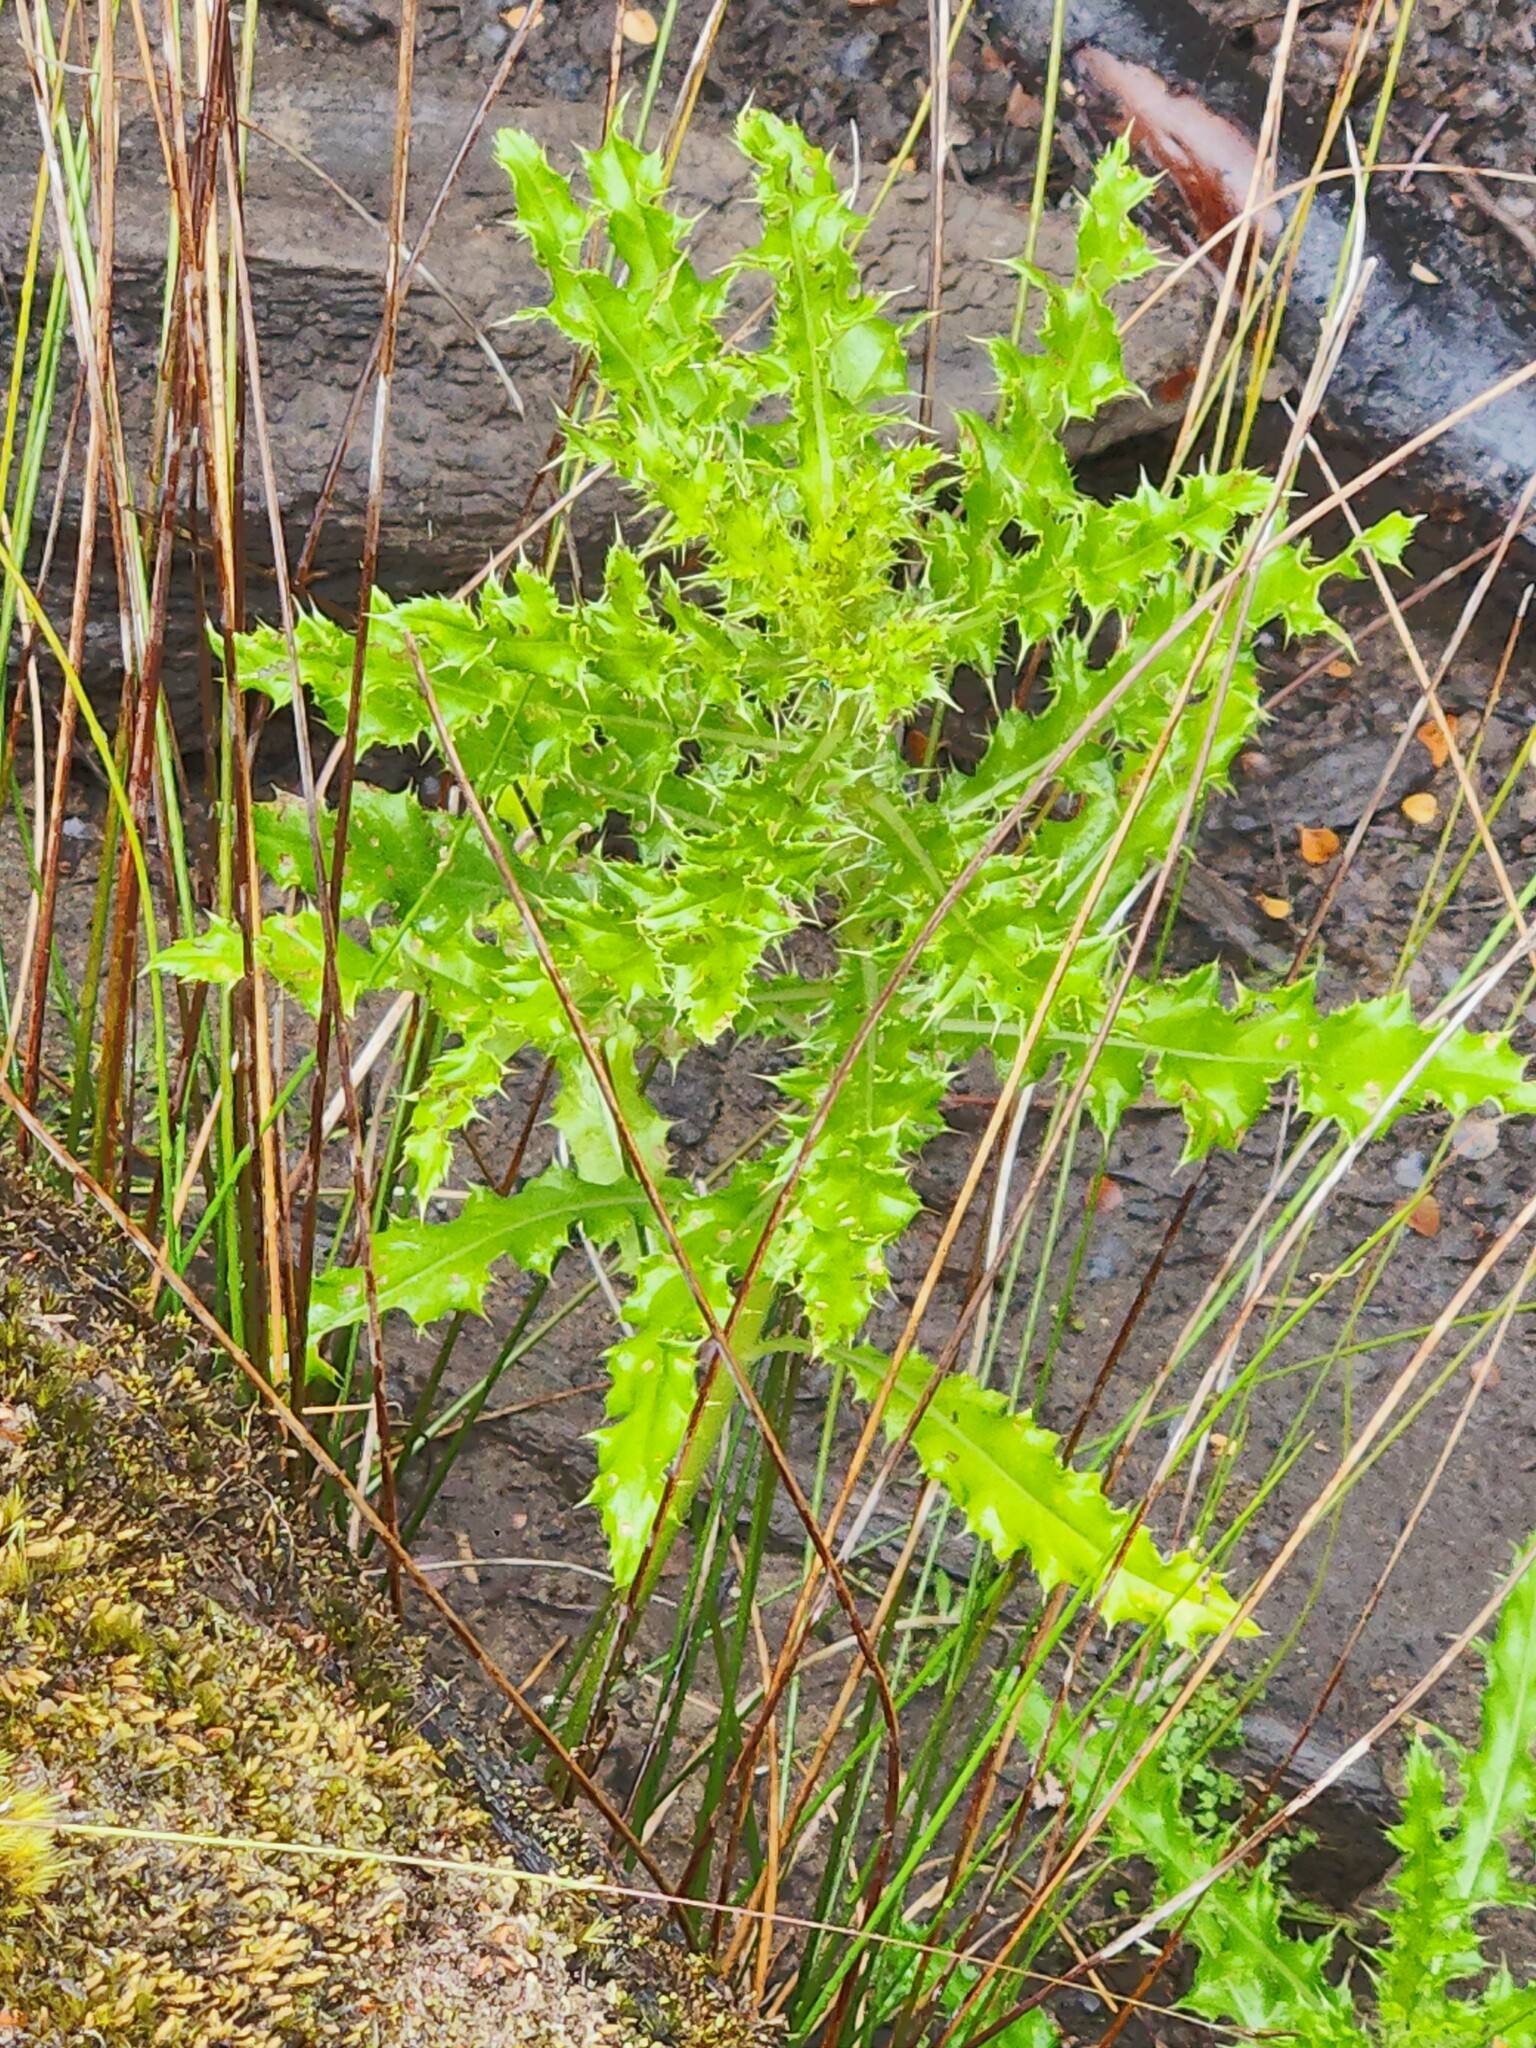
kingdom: Plantae
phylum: Tracheophyta
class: Magnoliopsida
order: Asterales
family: Asteraceae
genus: Cirsium
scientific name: Cirsium arvense
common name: Creeping thistle
